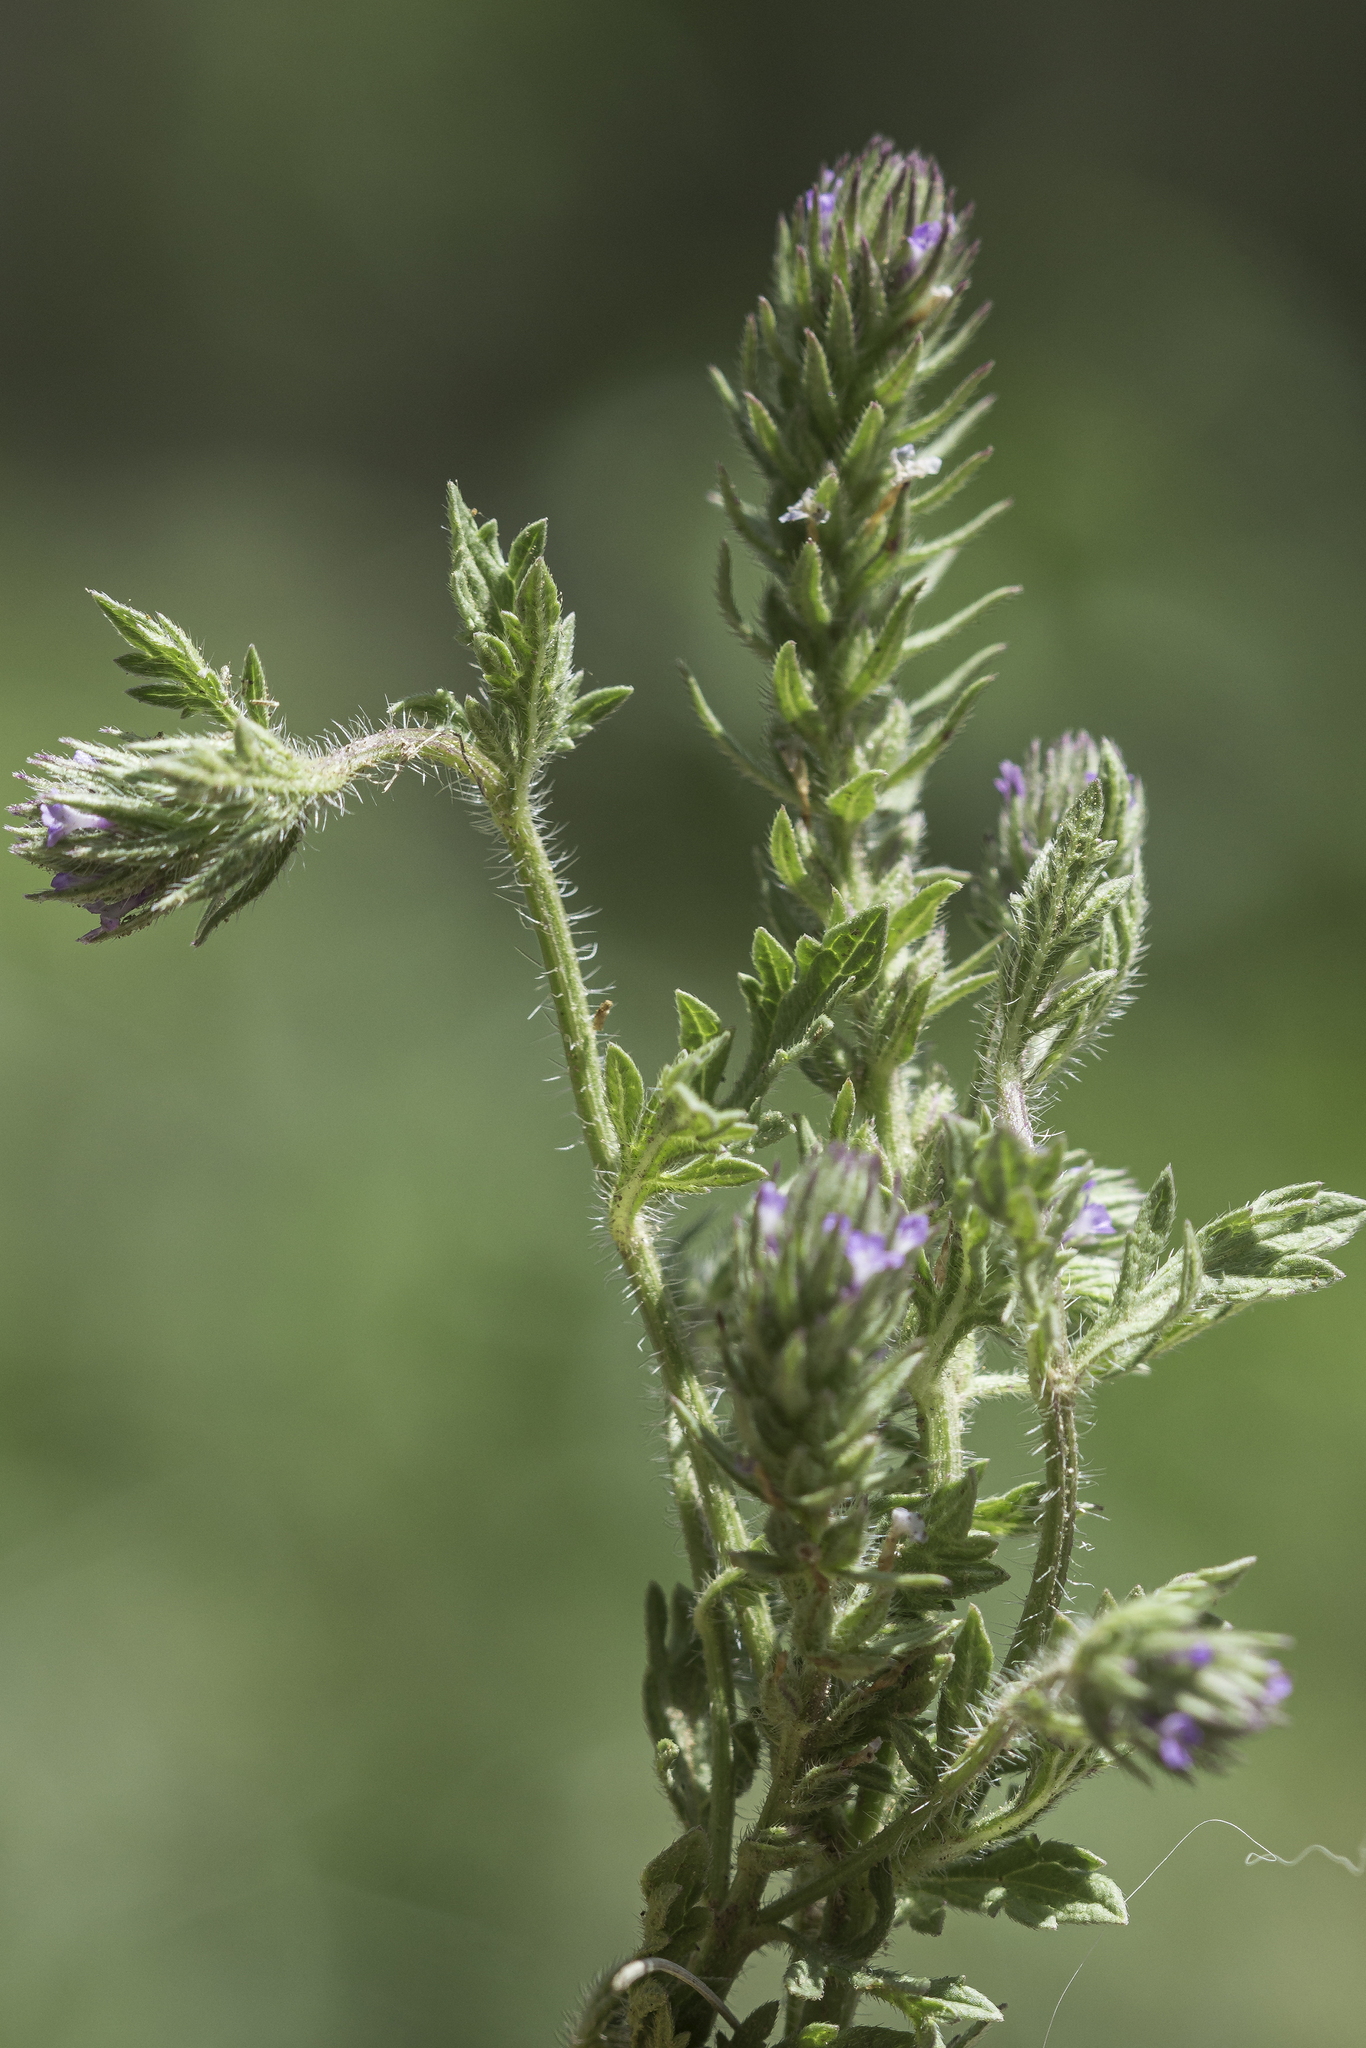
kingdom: Plantae
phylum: Tracheophyta
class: Magnoliopsida
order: Lamiales
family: Verbenaceae
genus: Verbena
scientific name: Verbena bracteata
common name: Bracted vervain
